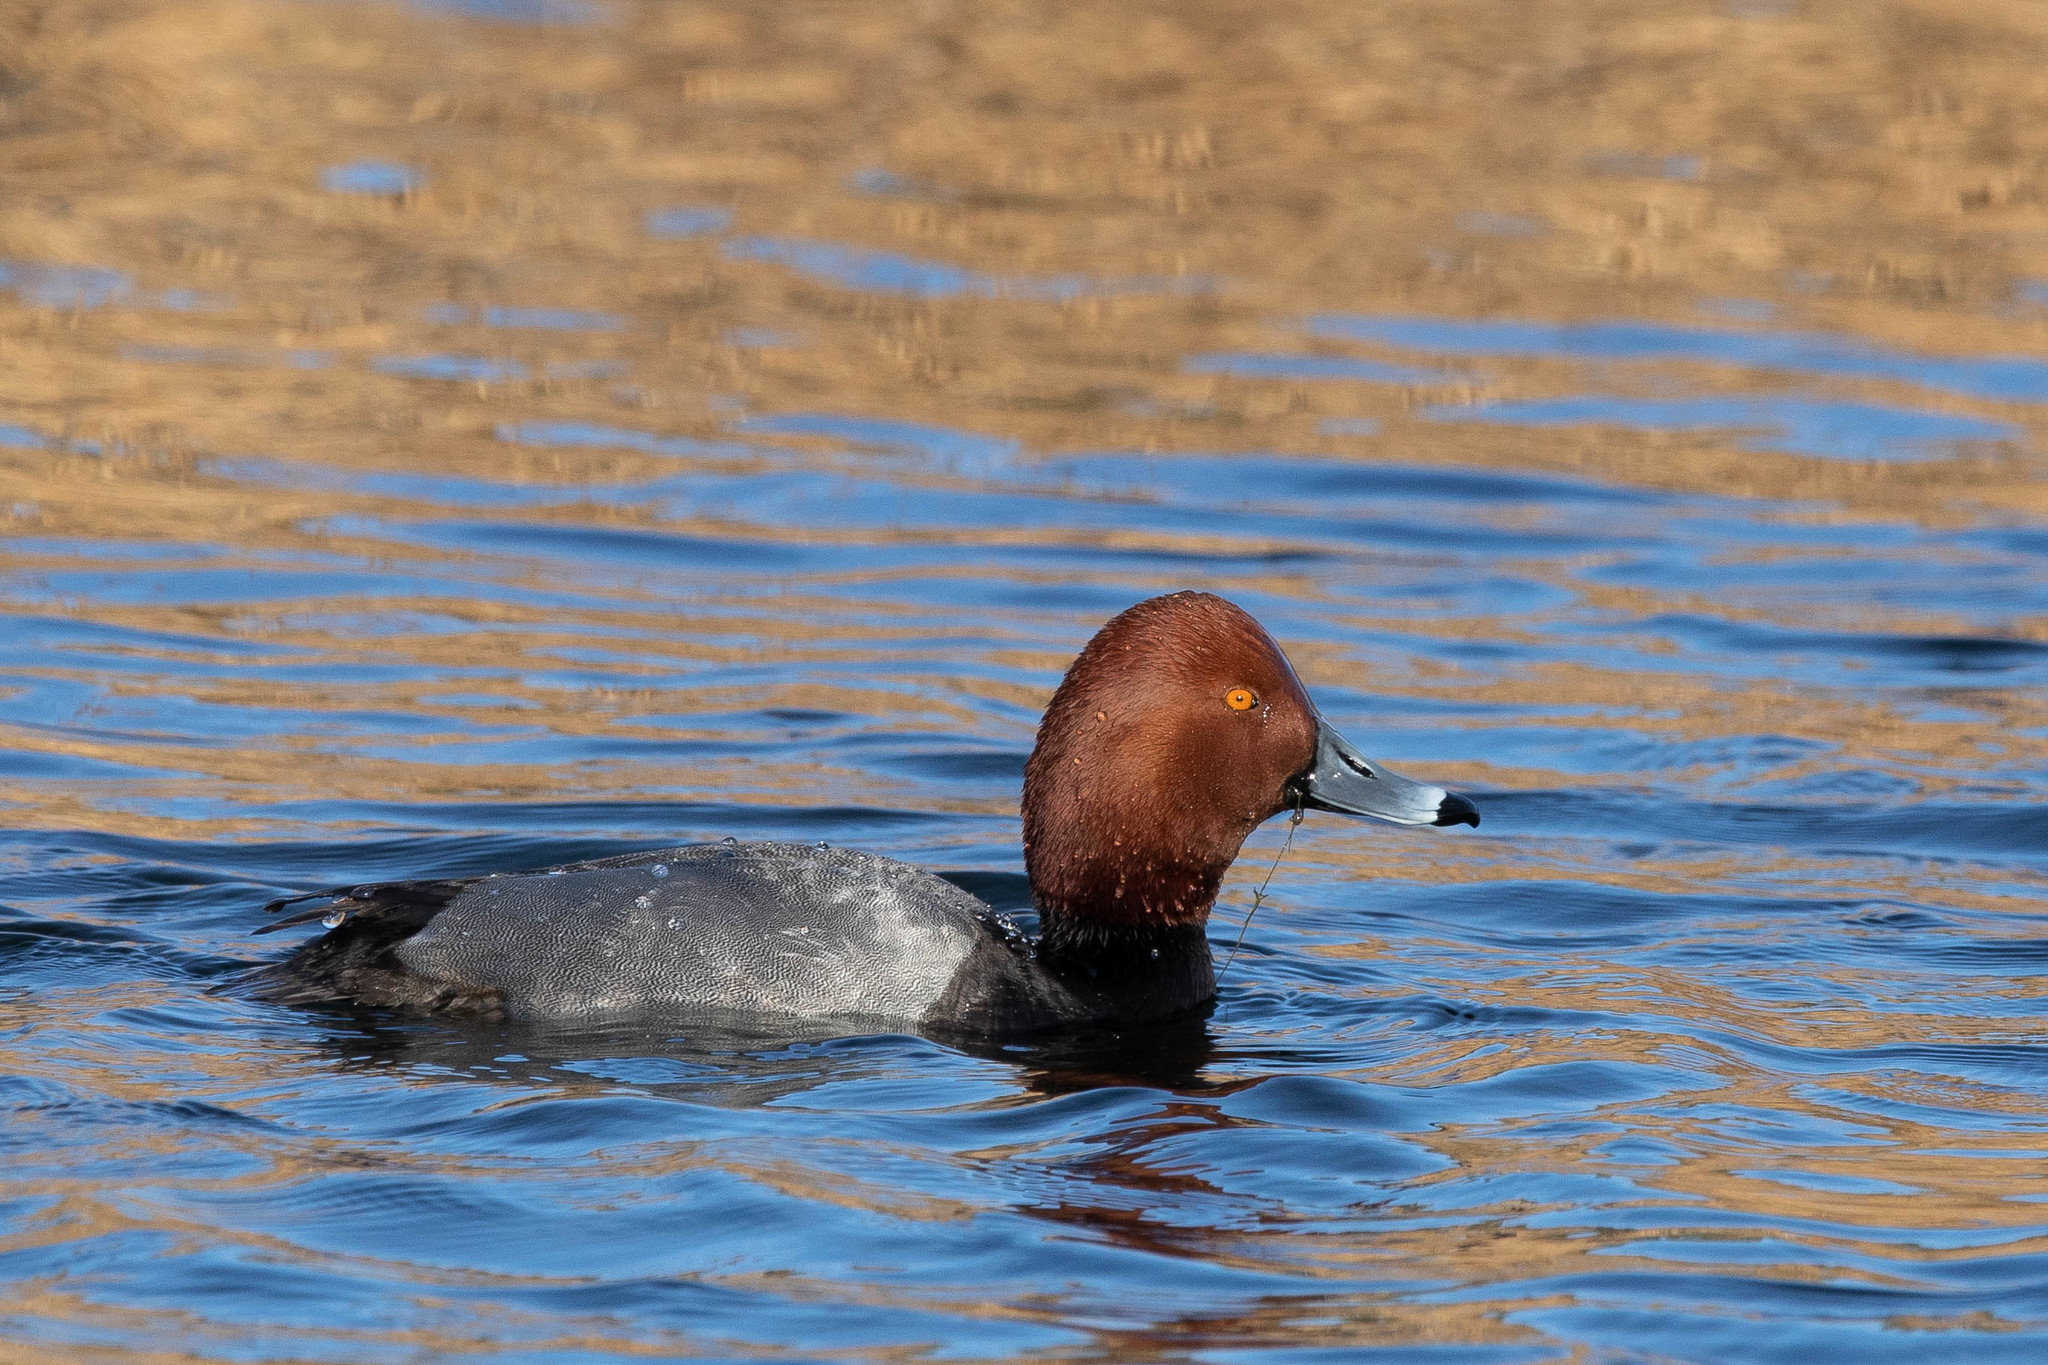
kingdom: Animalia
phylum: Chordata
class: Aves
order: Anseriformes
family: Anatidae
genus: Aythya
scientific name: Aythya americana
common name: Redhead
